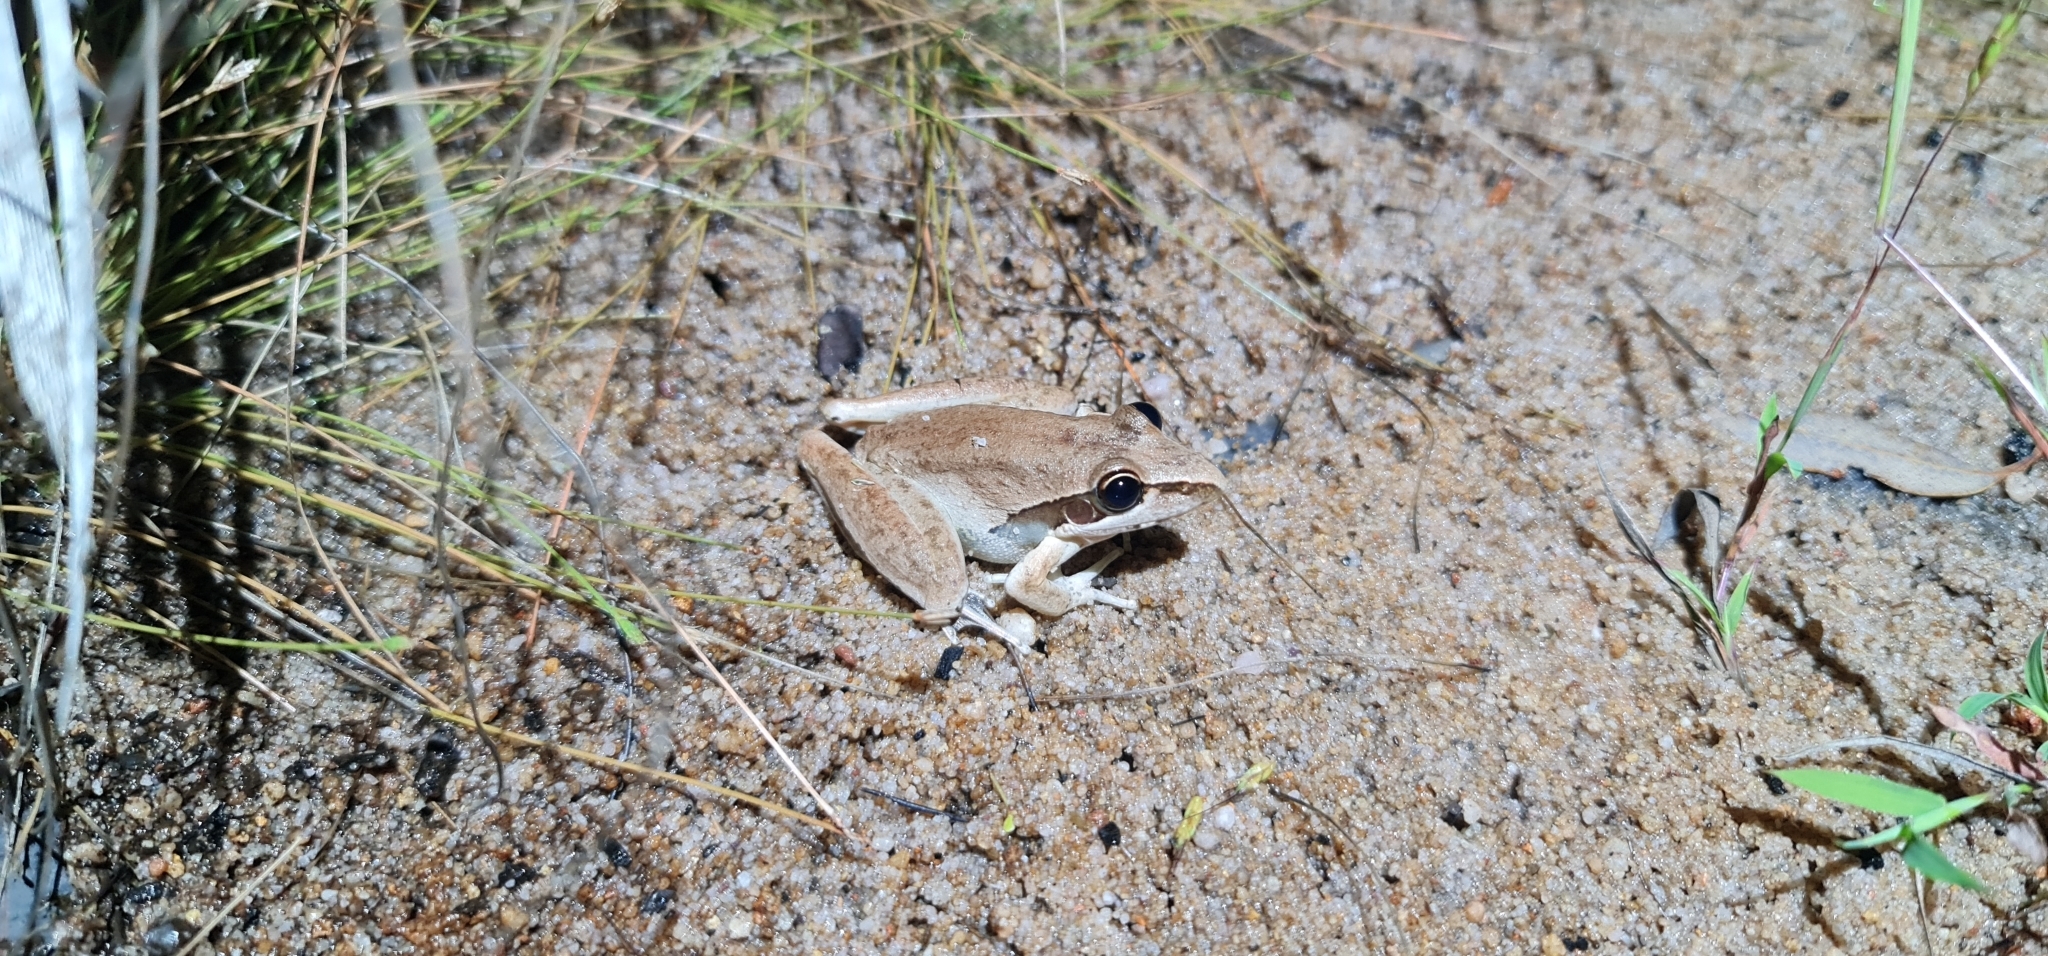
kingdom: Animalia
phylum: Chordata
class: Amphibia
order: Anura
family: Pelodryadidae
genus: Litoria
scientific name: Litoria watjulumensis
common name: Wotjulum frog
